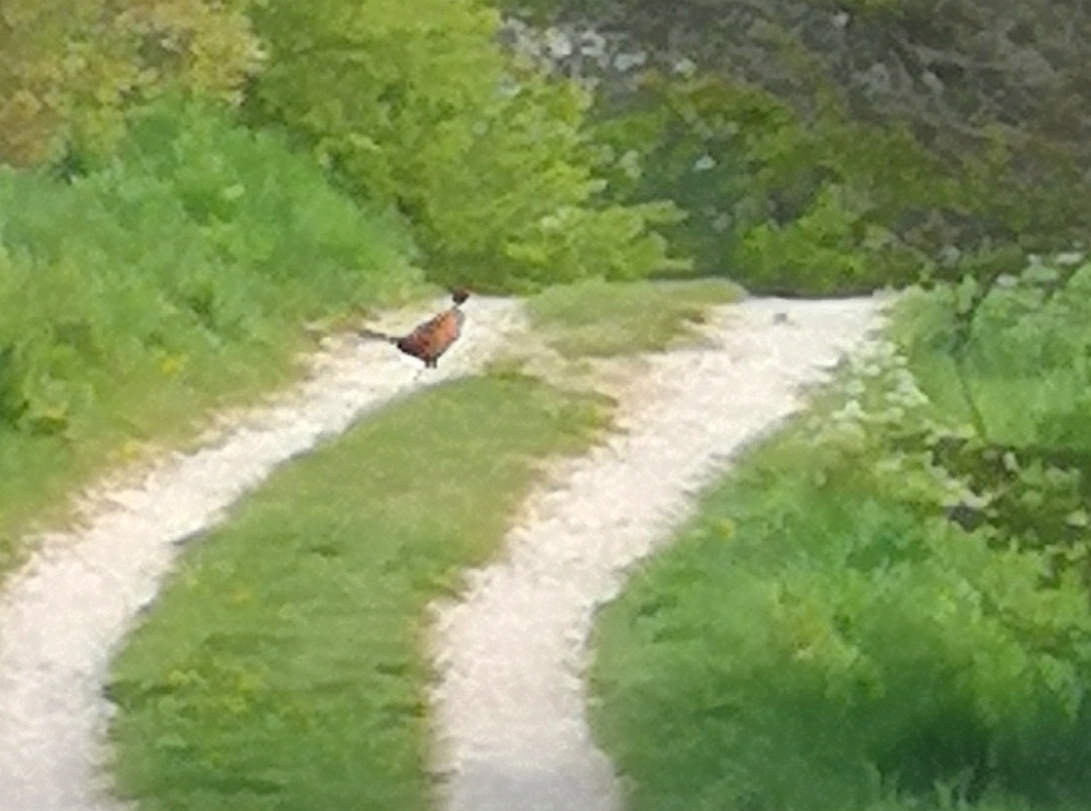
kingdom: Animalia
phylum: Chordata
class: Aves
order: Galliformes
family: Phasianidae
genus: Phasianus
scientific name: Phasianus colchicus
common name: Common pheasant
